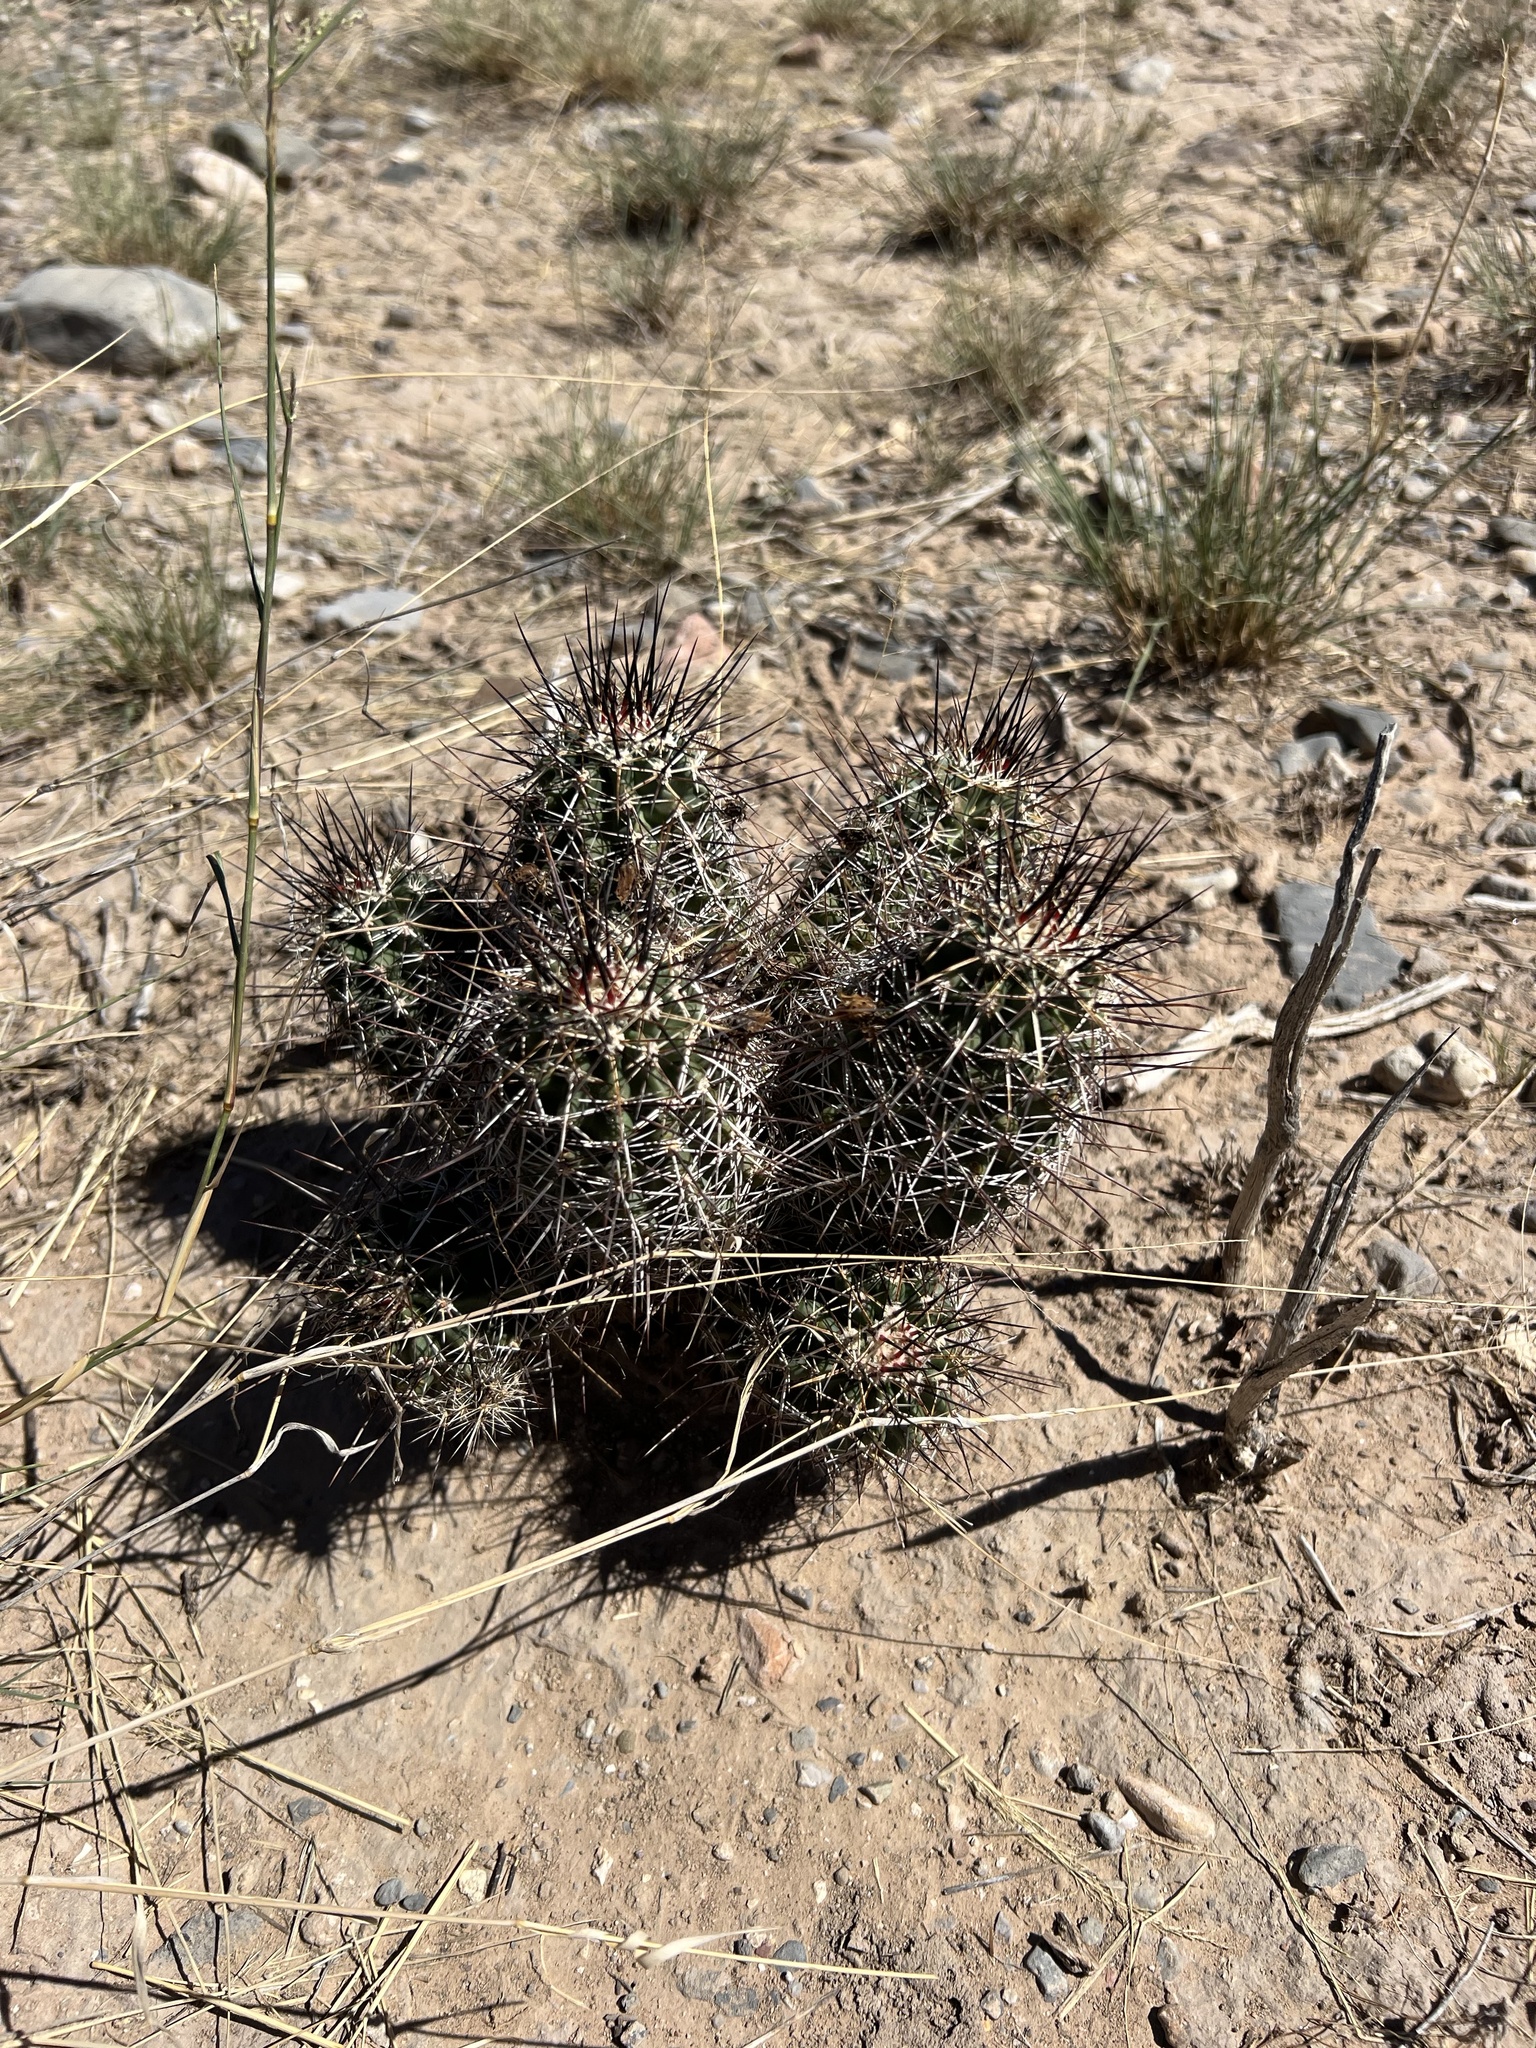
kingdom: Plantae
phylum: Tracheophyta
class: Magnoliopsida
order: Caryophyllales
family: Cactaceae
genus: Echinocereus
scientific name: Echinocereus fendleri
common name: Fendler's hedgehog cactus
